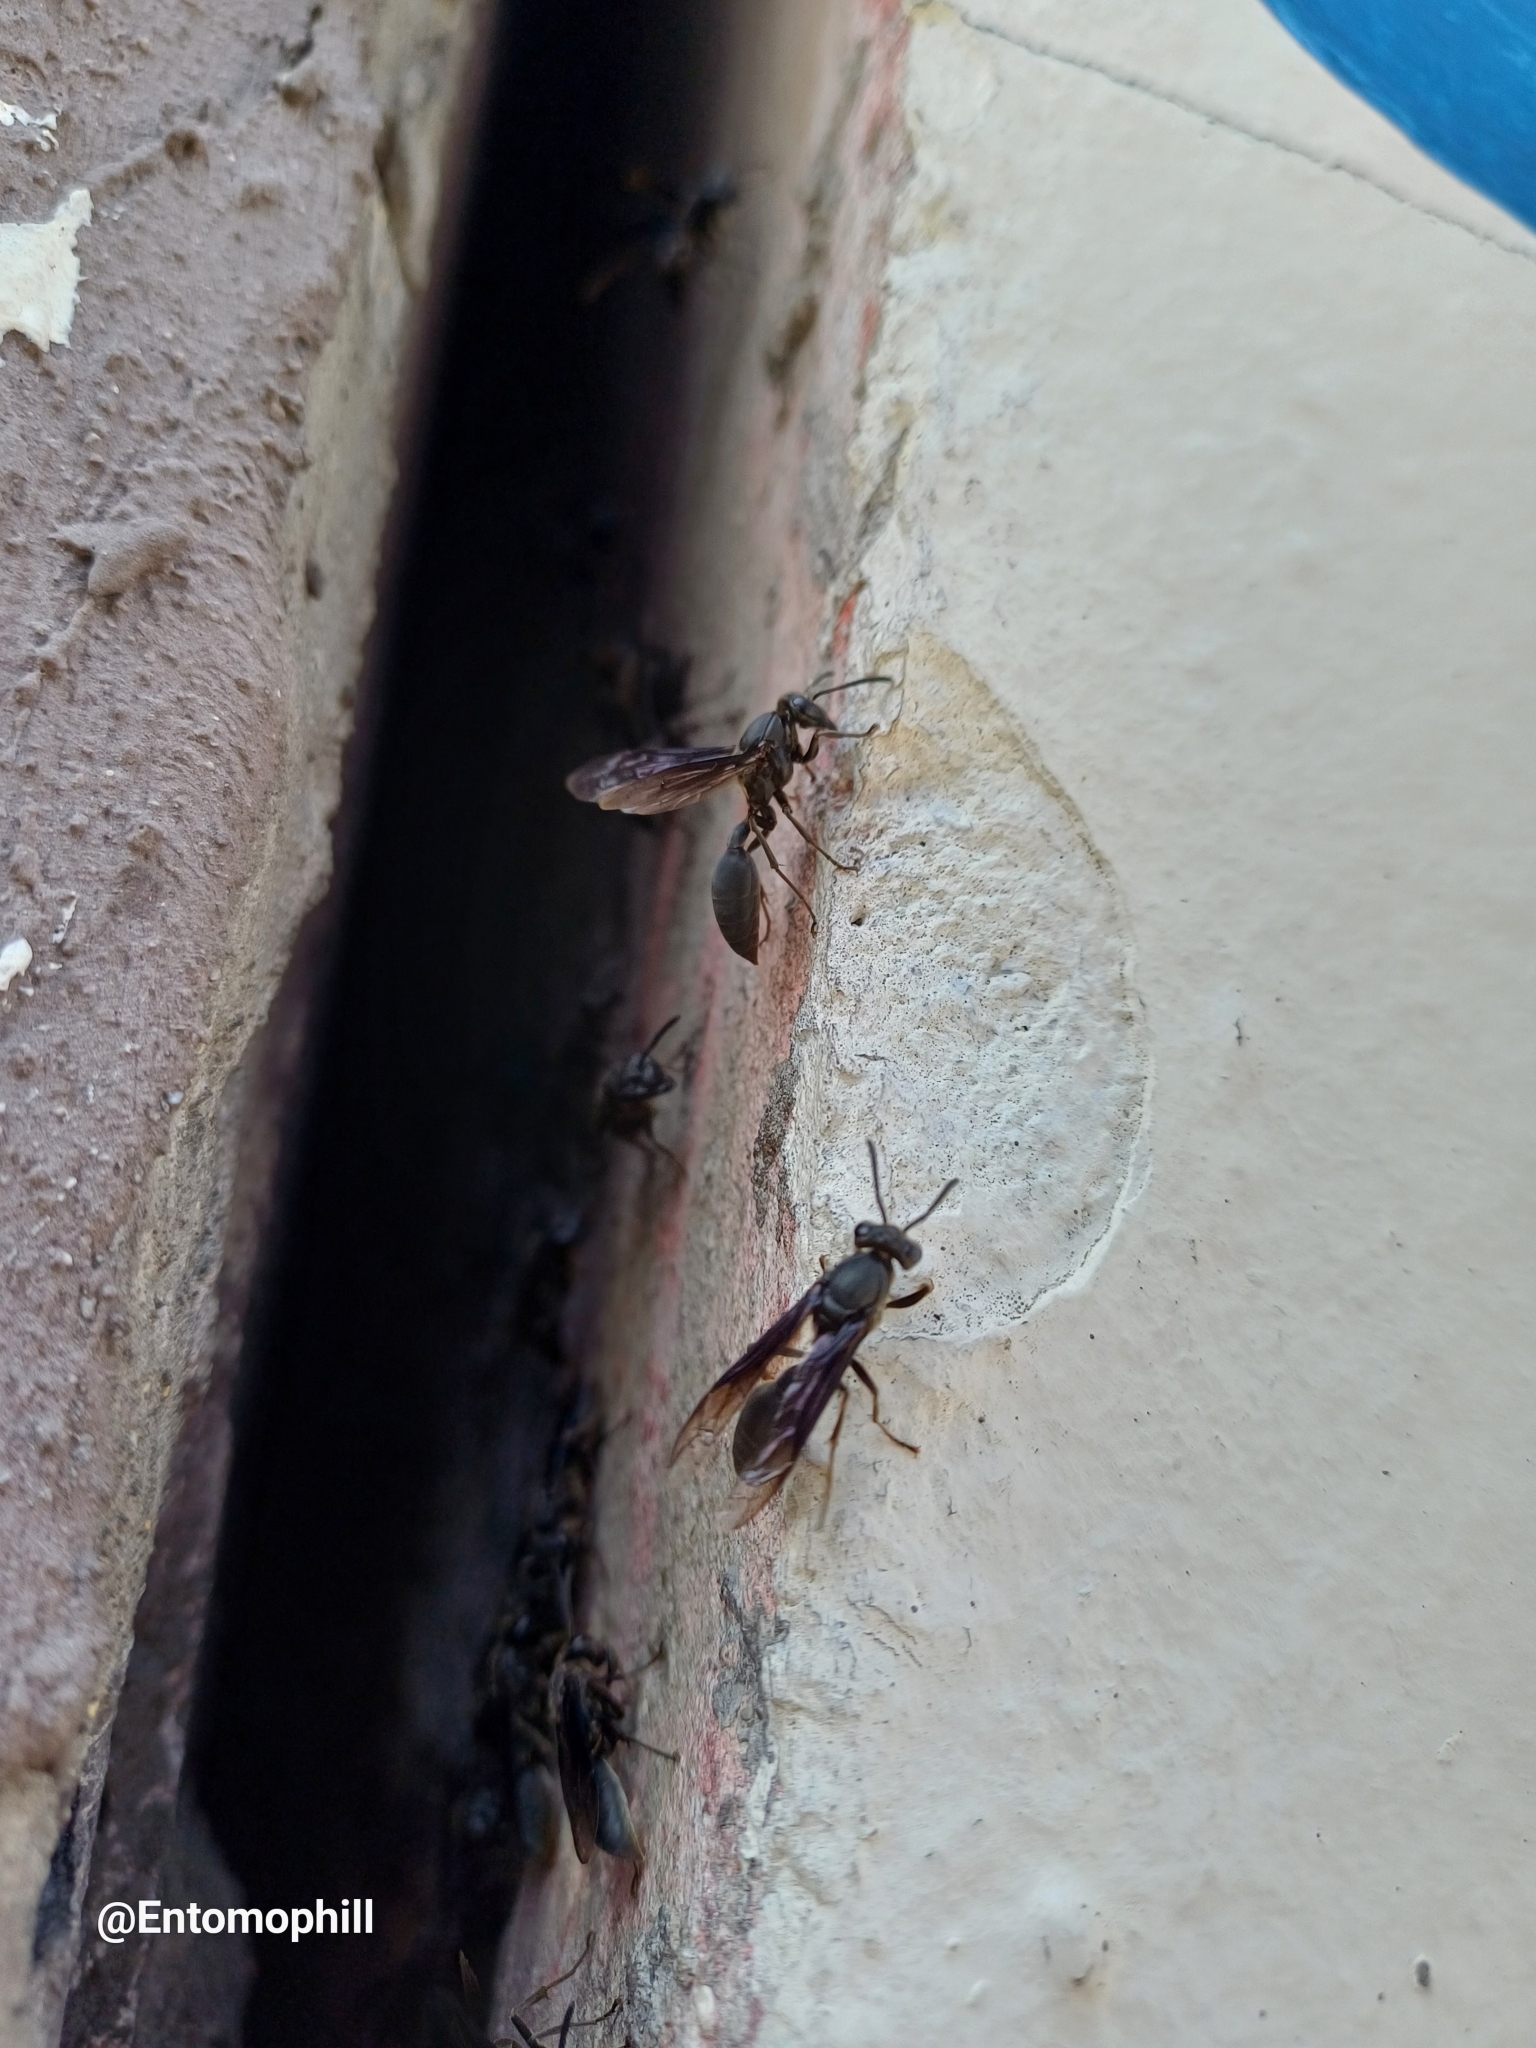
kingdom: Animalia
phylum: Arthropoda
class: Insecta
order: Hymenoptera
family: Eumenidae
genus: Polybia
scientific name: Polybia ignobilis
